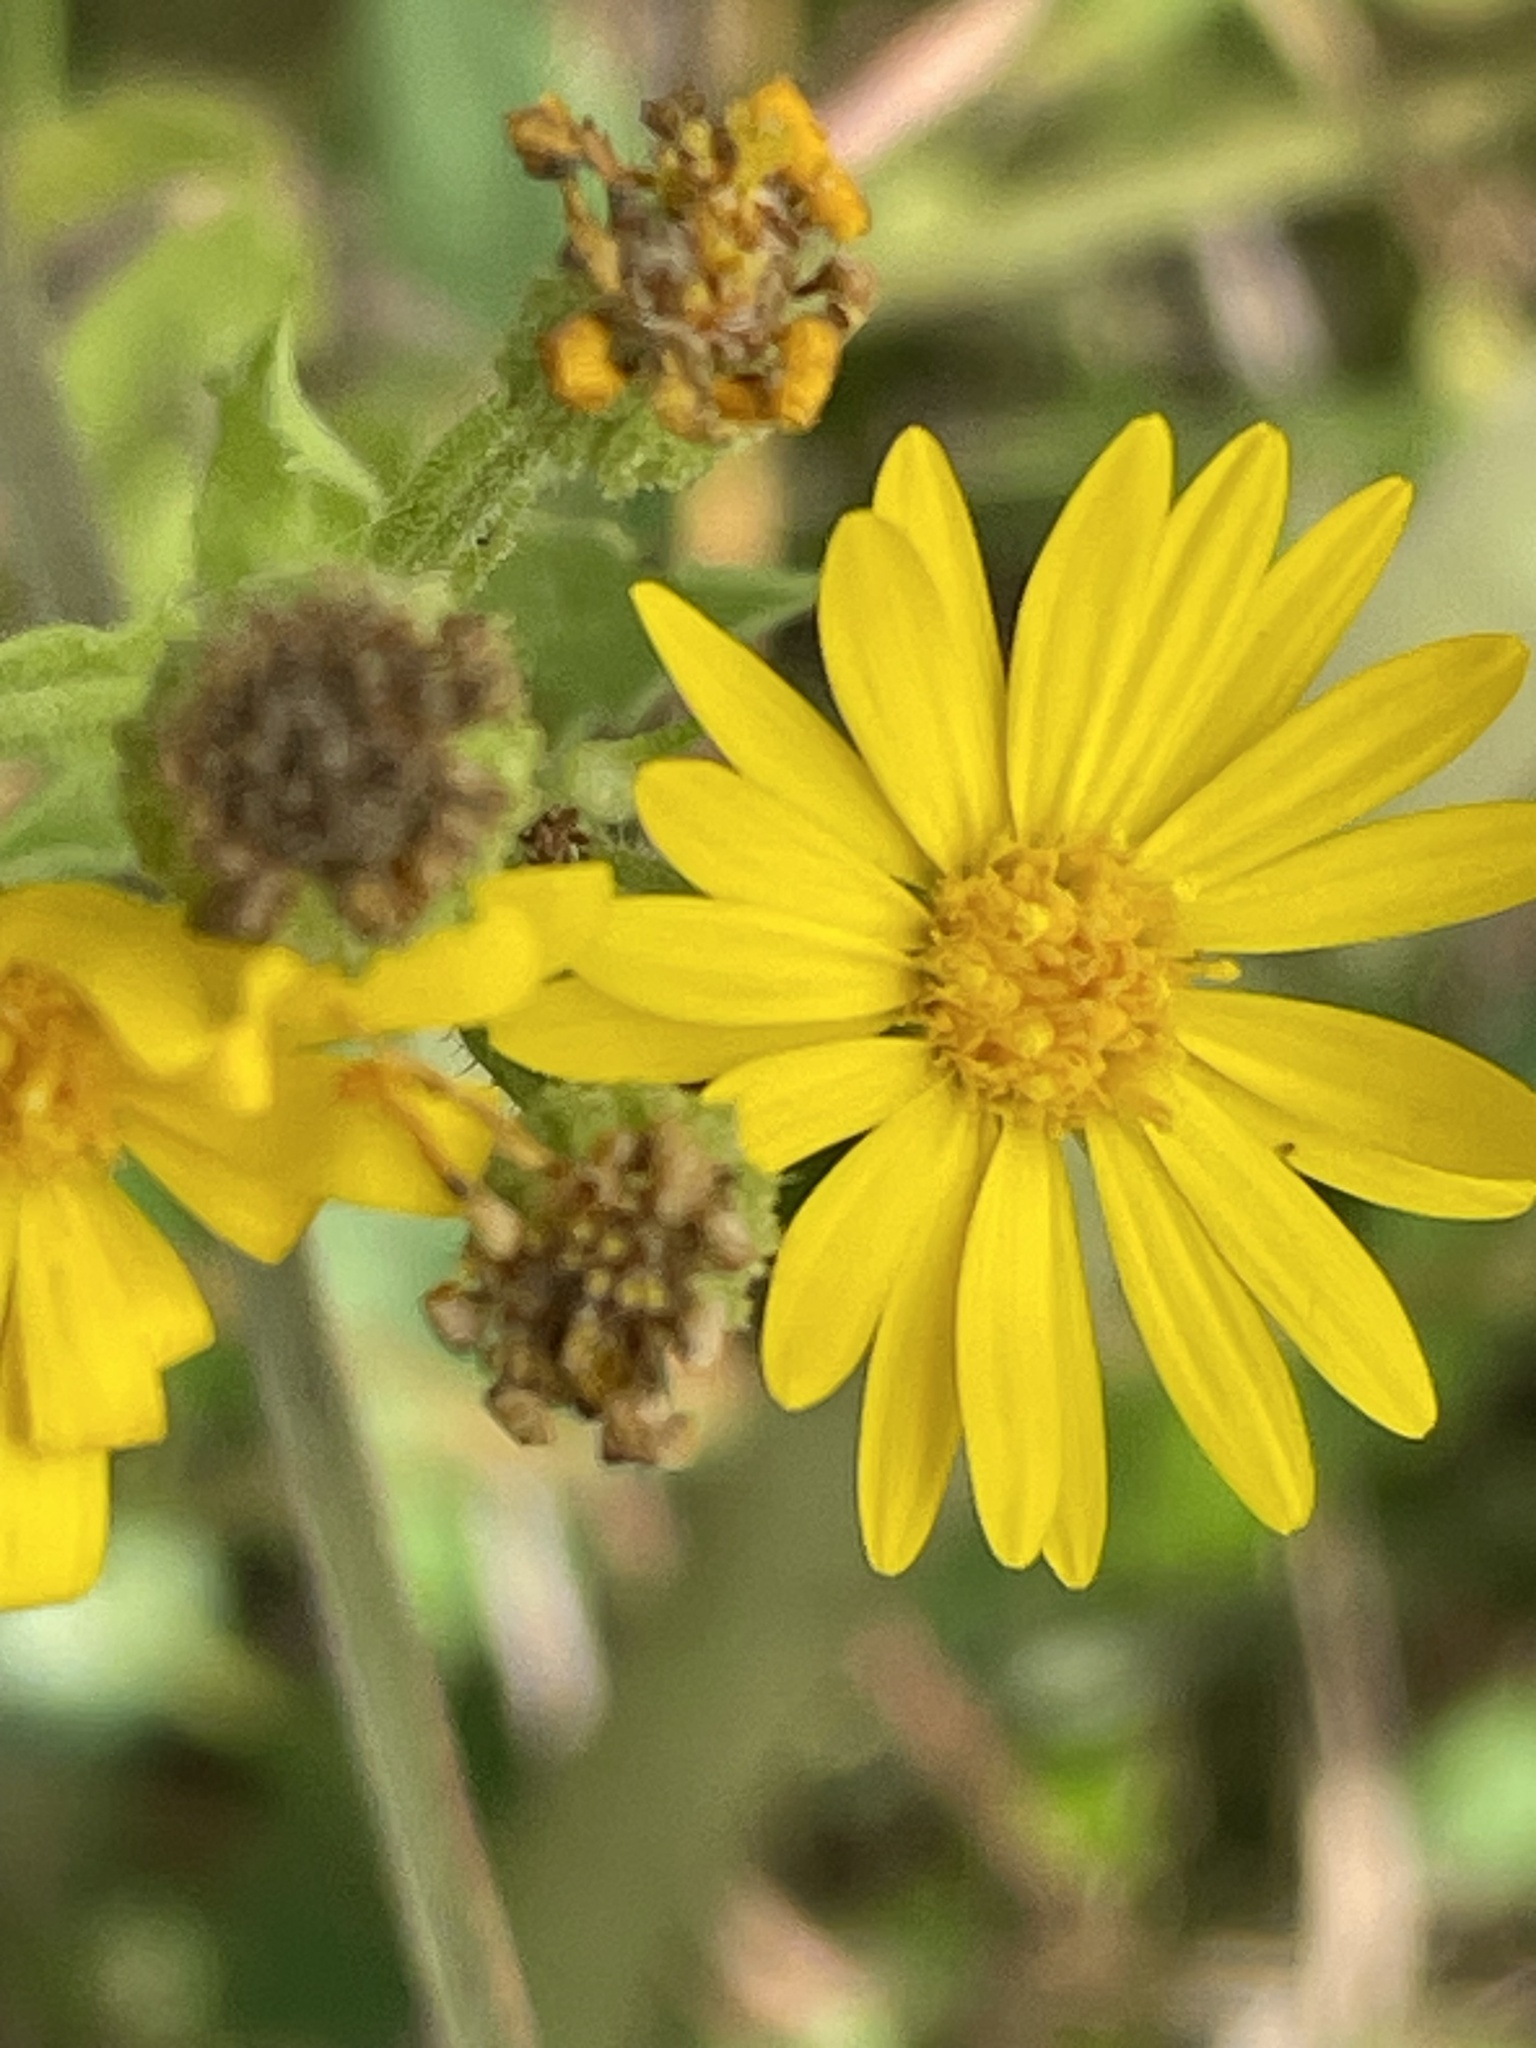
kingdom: Plantae
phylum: Tracheophyta
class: Magnoliopsida
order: Asterales
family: Asteraceae
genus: Heterotheca
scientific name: Heterotheca subaxillaris
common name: Camphorweed
